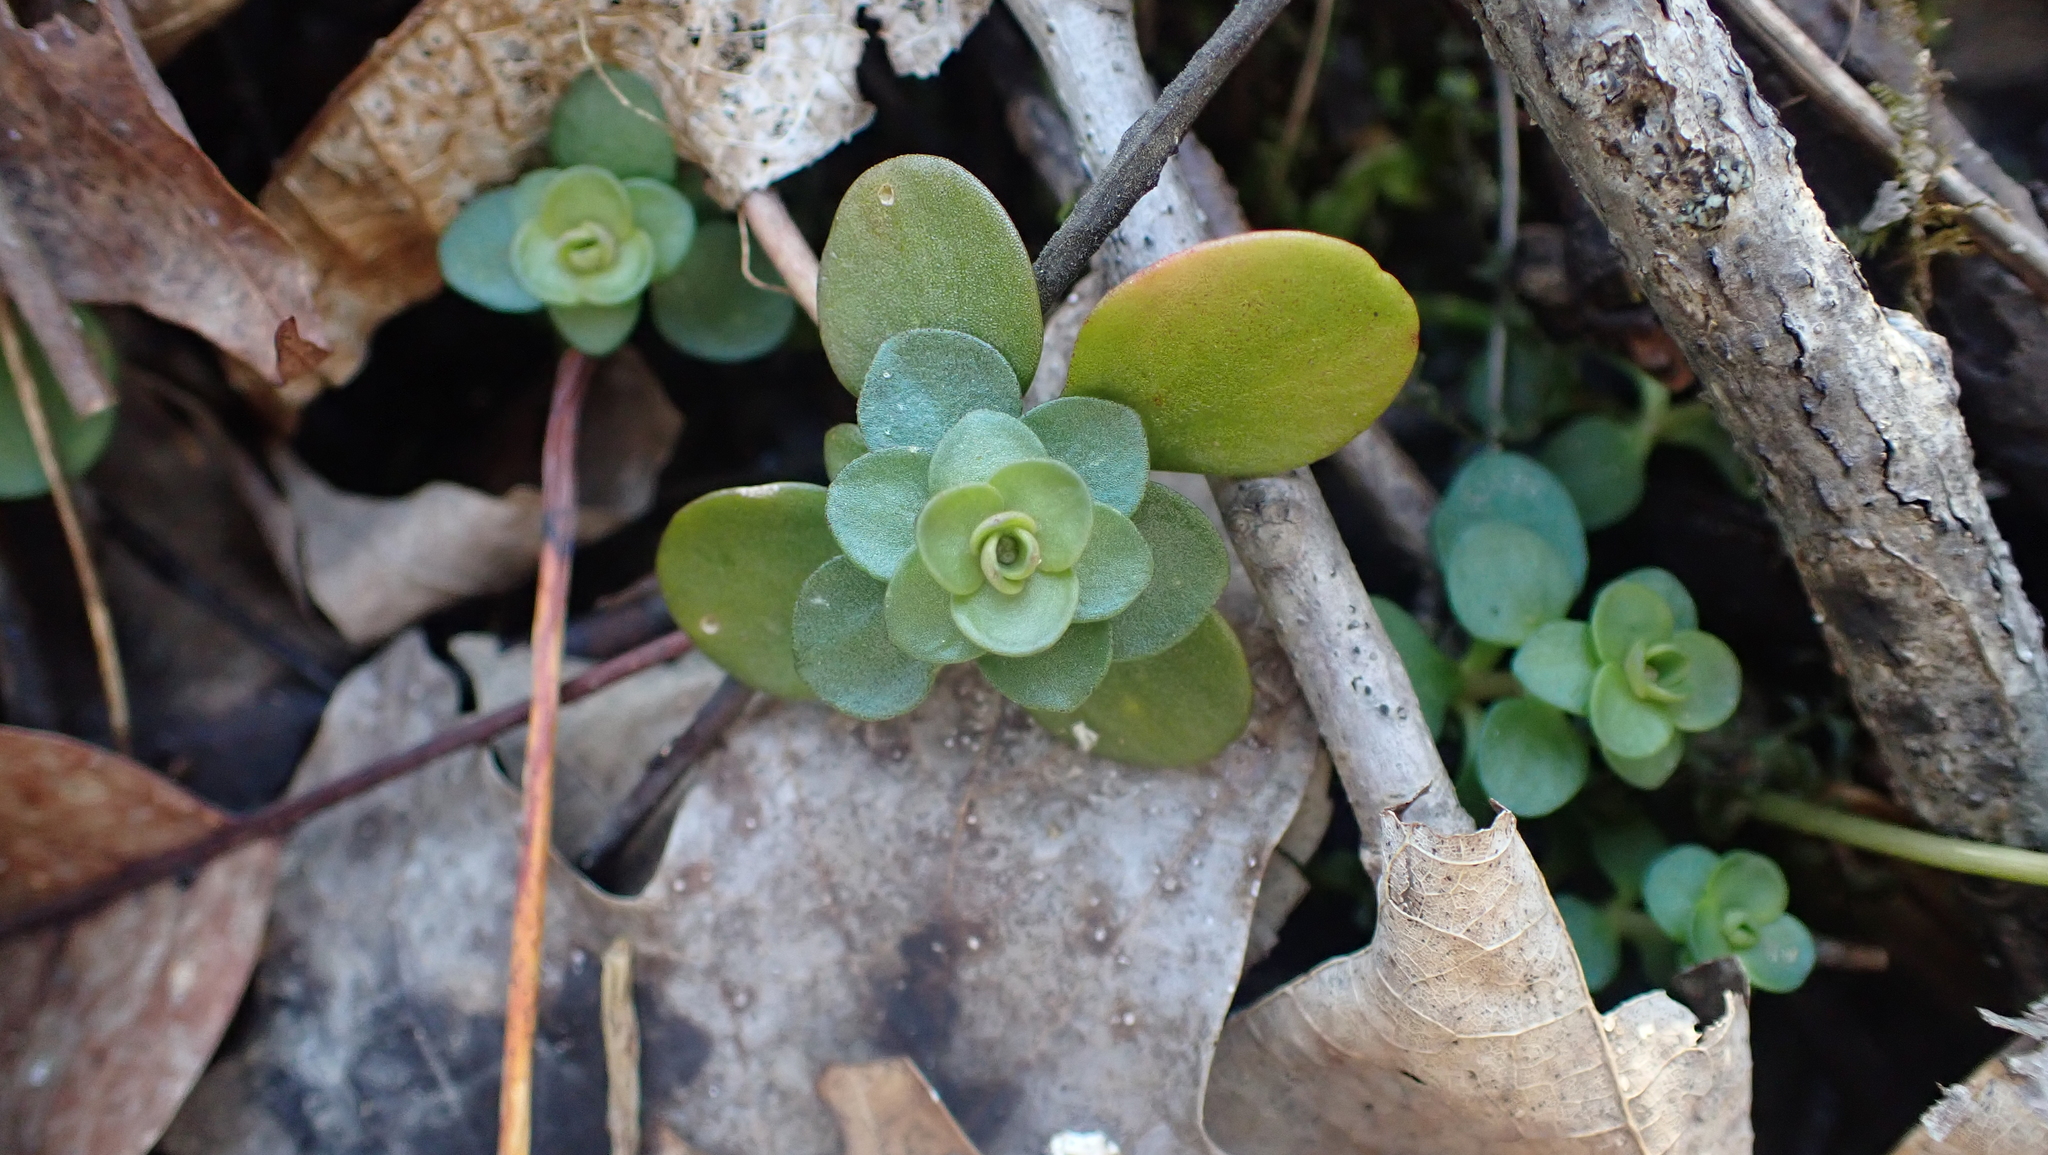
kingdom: Plantae
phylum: Tracheophyta
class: Magnoliopsida
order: Saxifragales
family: Crassulaceae
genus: Sedum
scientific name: Sedum ternatum
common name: Wild stonecrop
